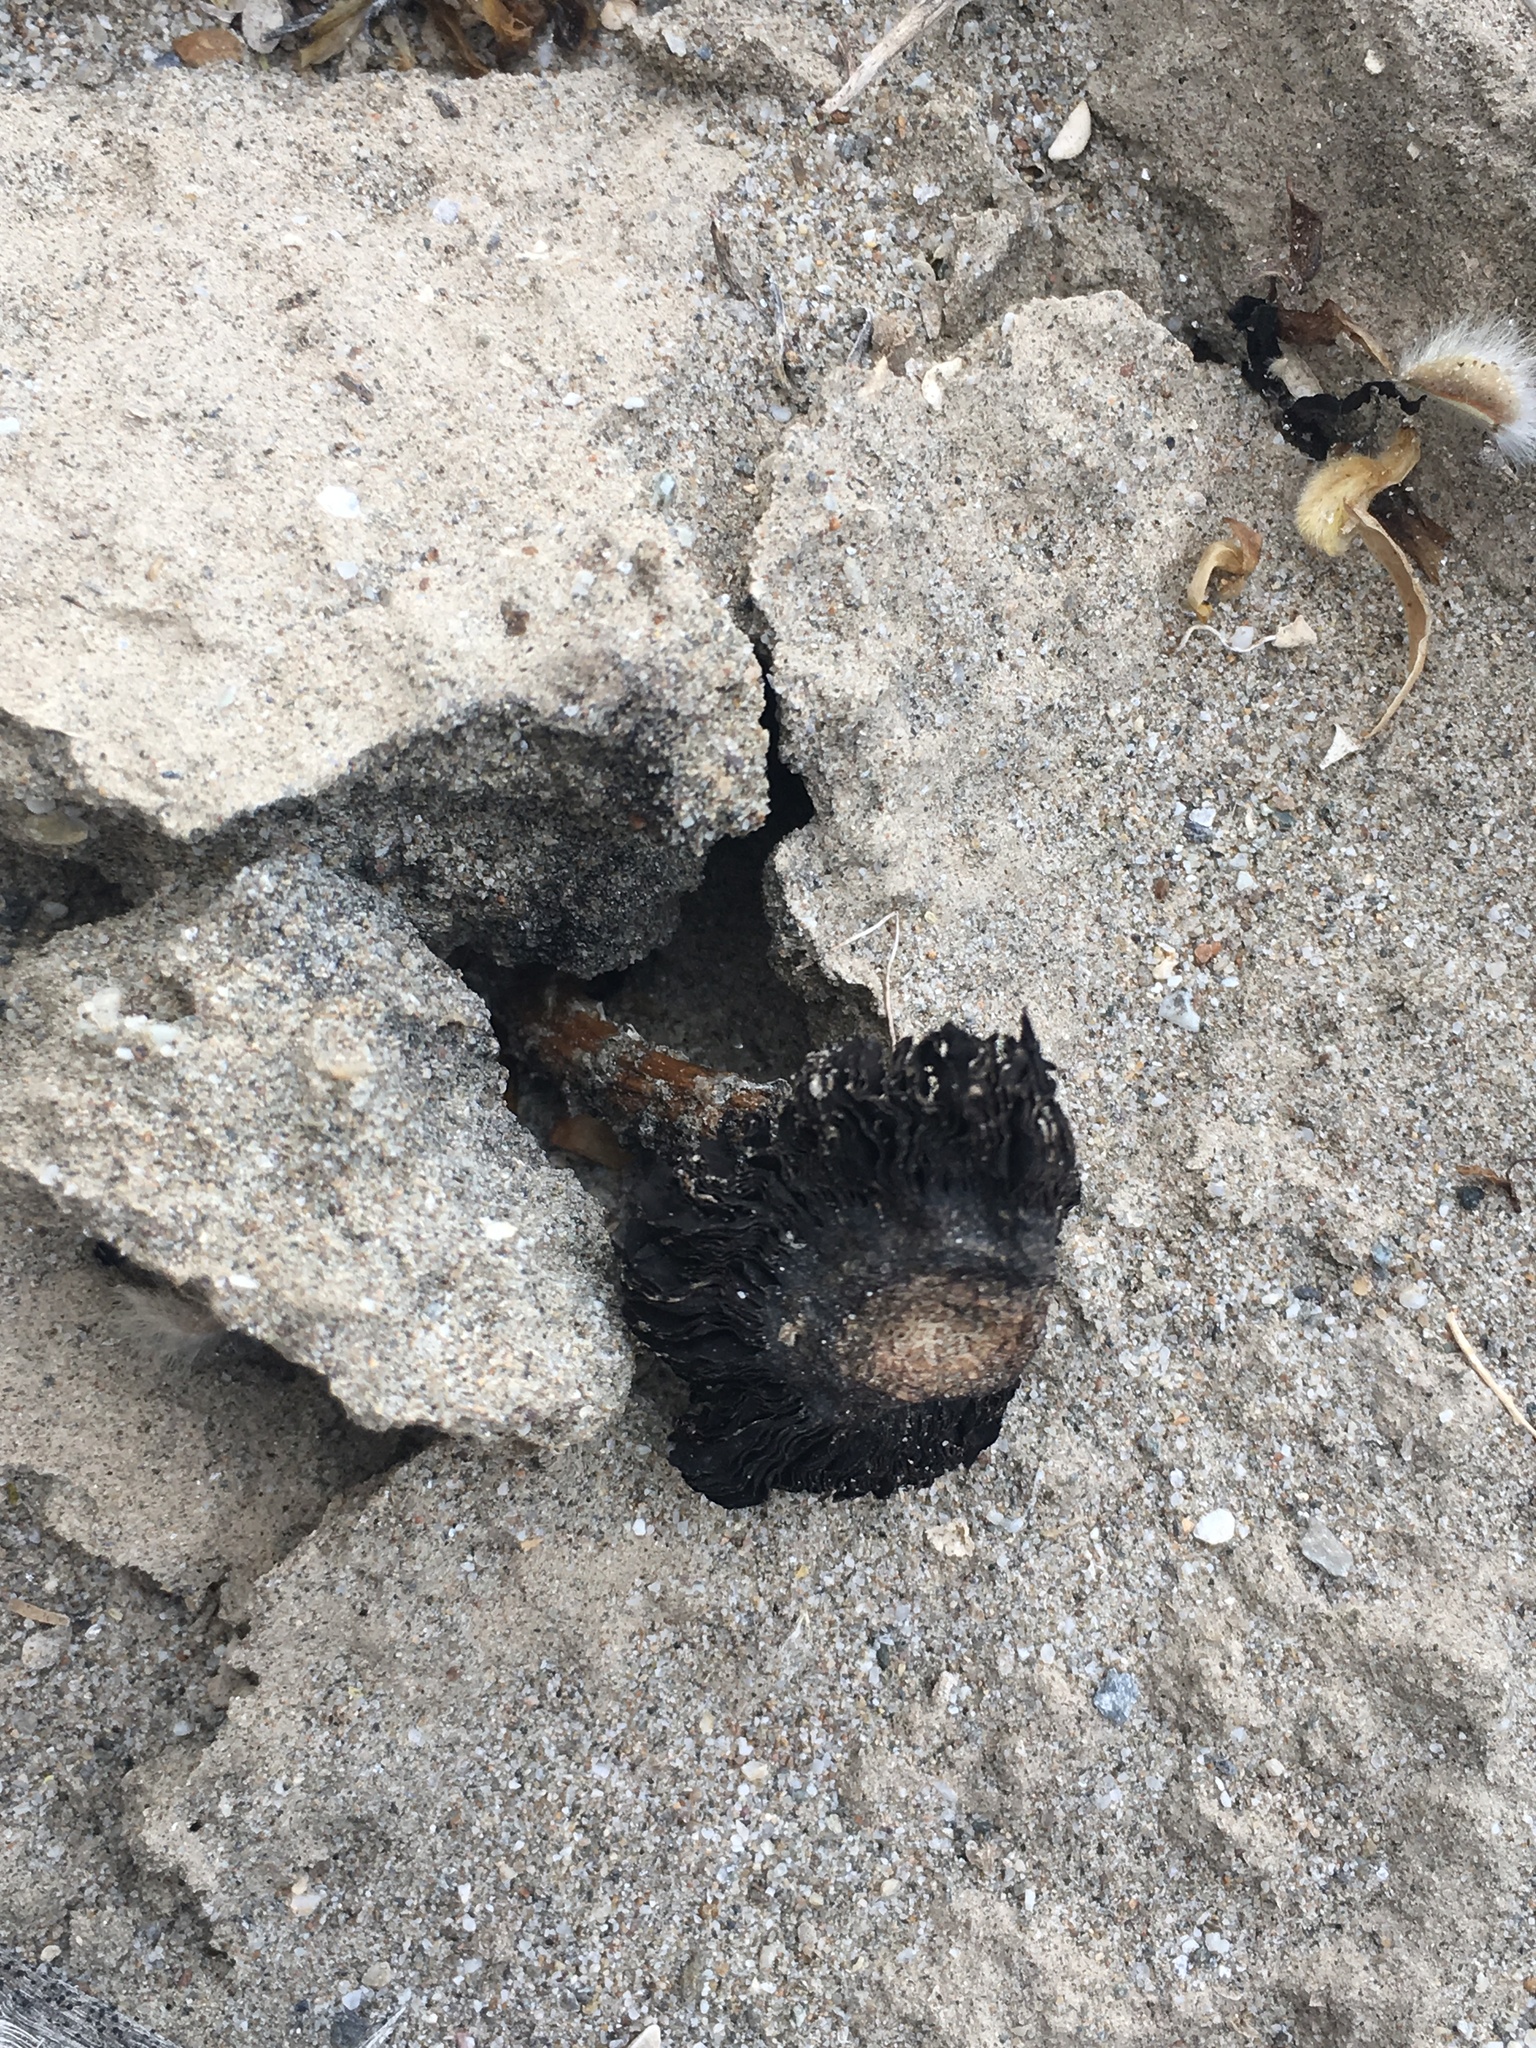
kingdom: Fungi
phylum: Basidiomycota
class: Agaricomycetes
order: Agaricales
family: Agaricaceae
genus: Montagnea
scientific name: Montagnea arenaria
